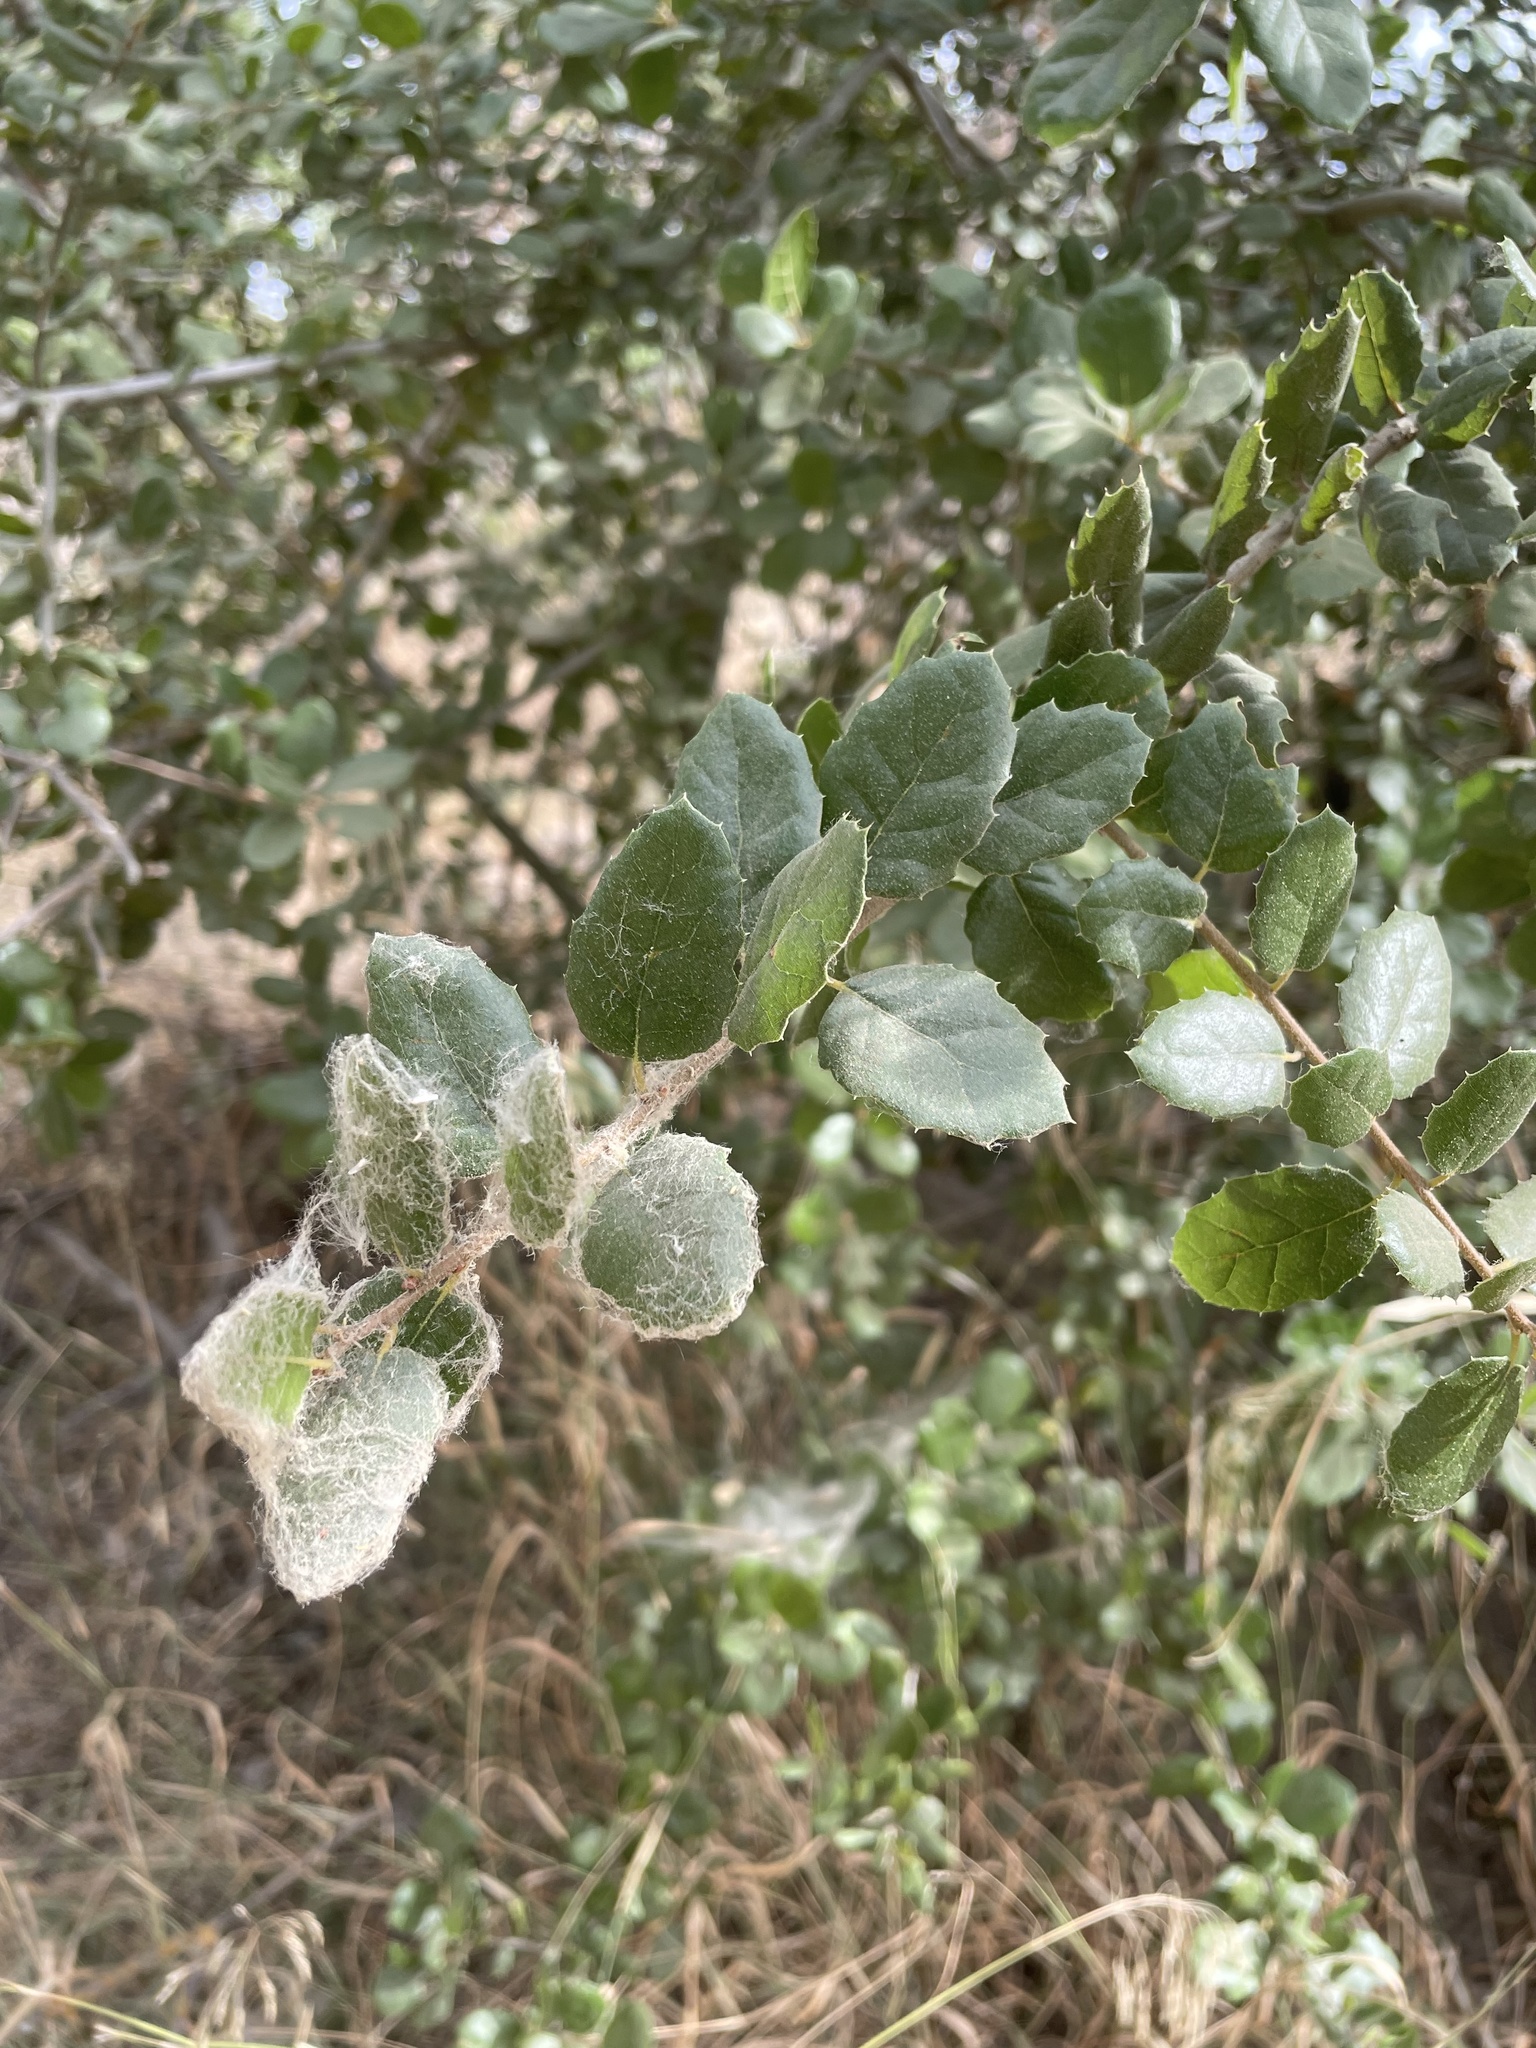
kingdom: Plantae
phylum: Tracheophyta
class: Magnoliopsida
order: Fagales
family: Fagaceae
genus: Quercus
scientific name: Quercus agrifolia
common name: California live oak
